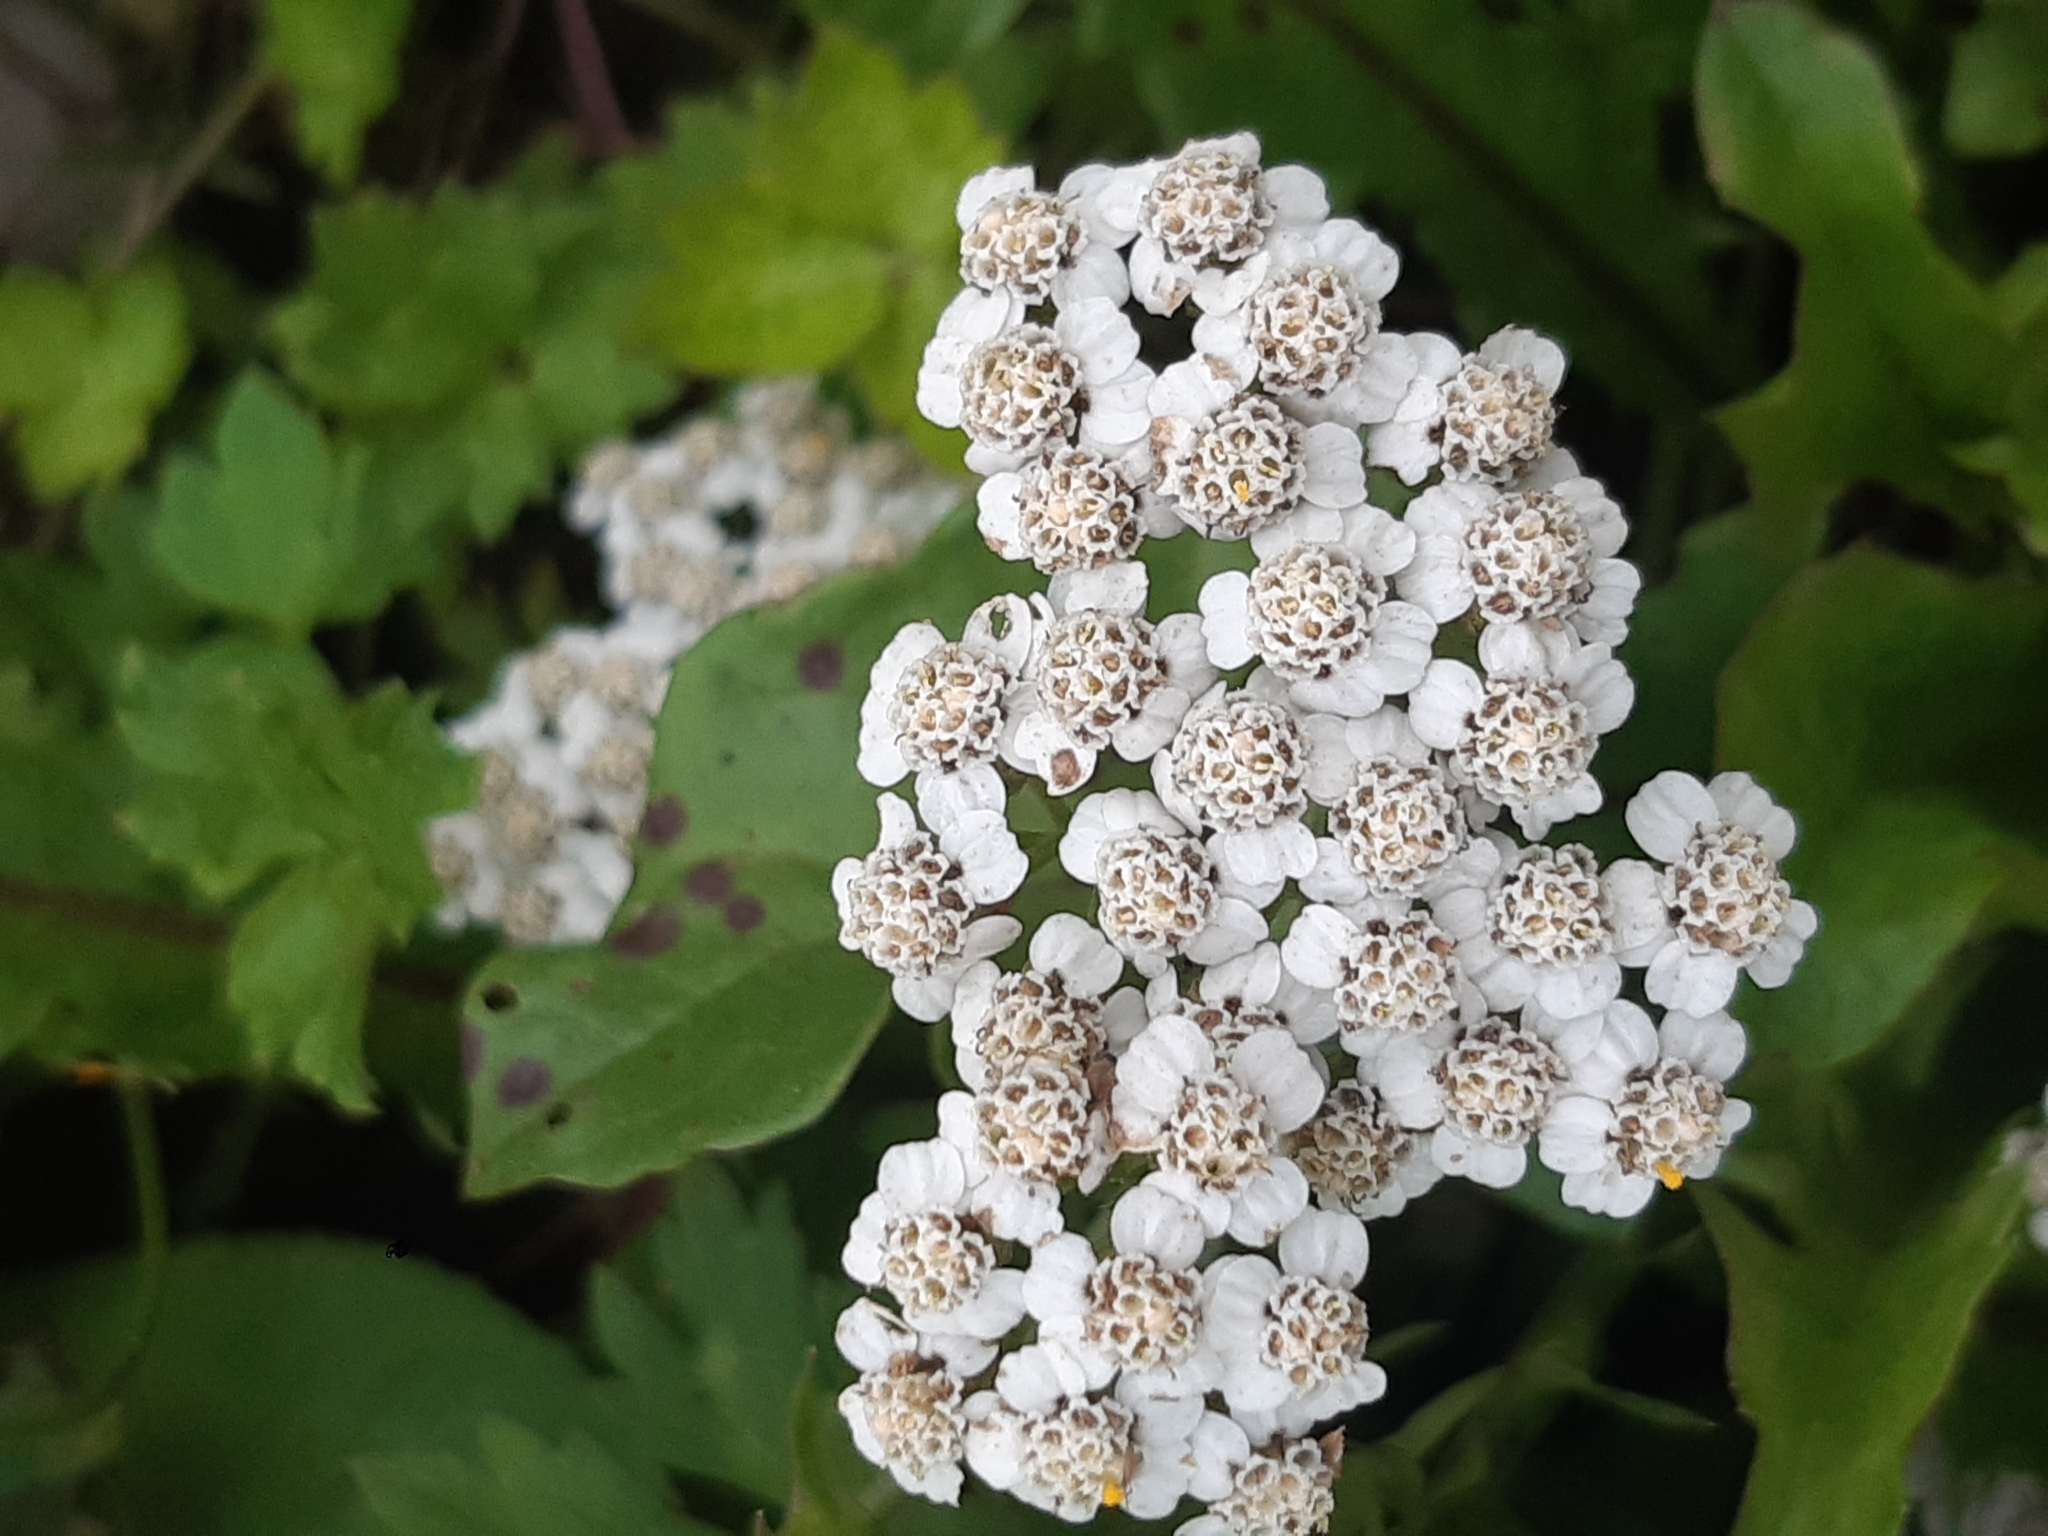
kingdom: Plantae
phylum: Tracheophyta
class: Magnoliopsida
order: Asterales
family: Asteraceae
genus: Achillea
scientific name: Achillea millefolium
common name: Yarrow
